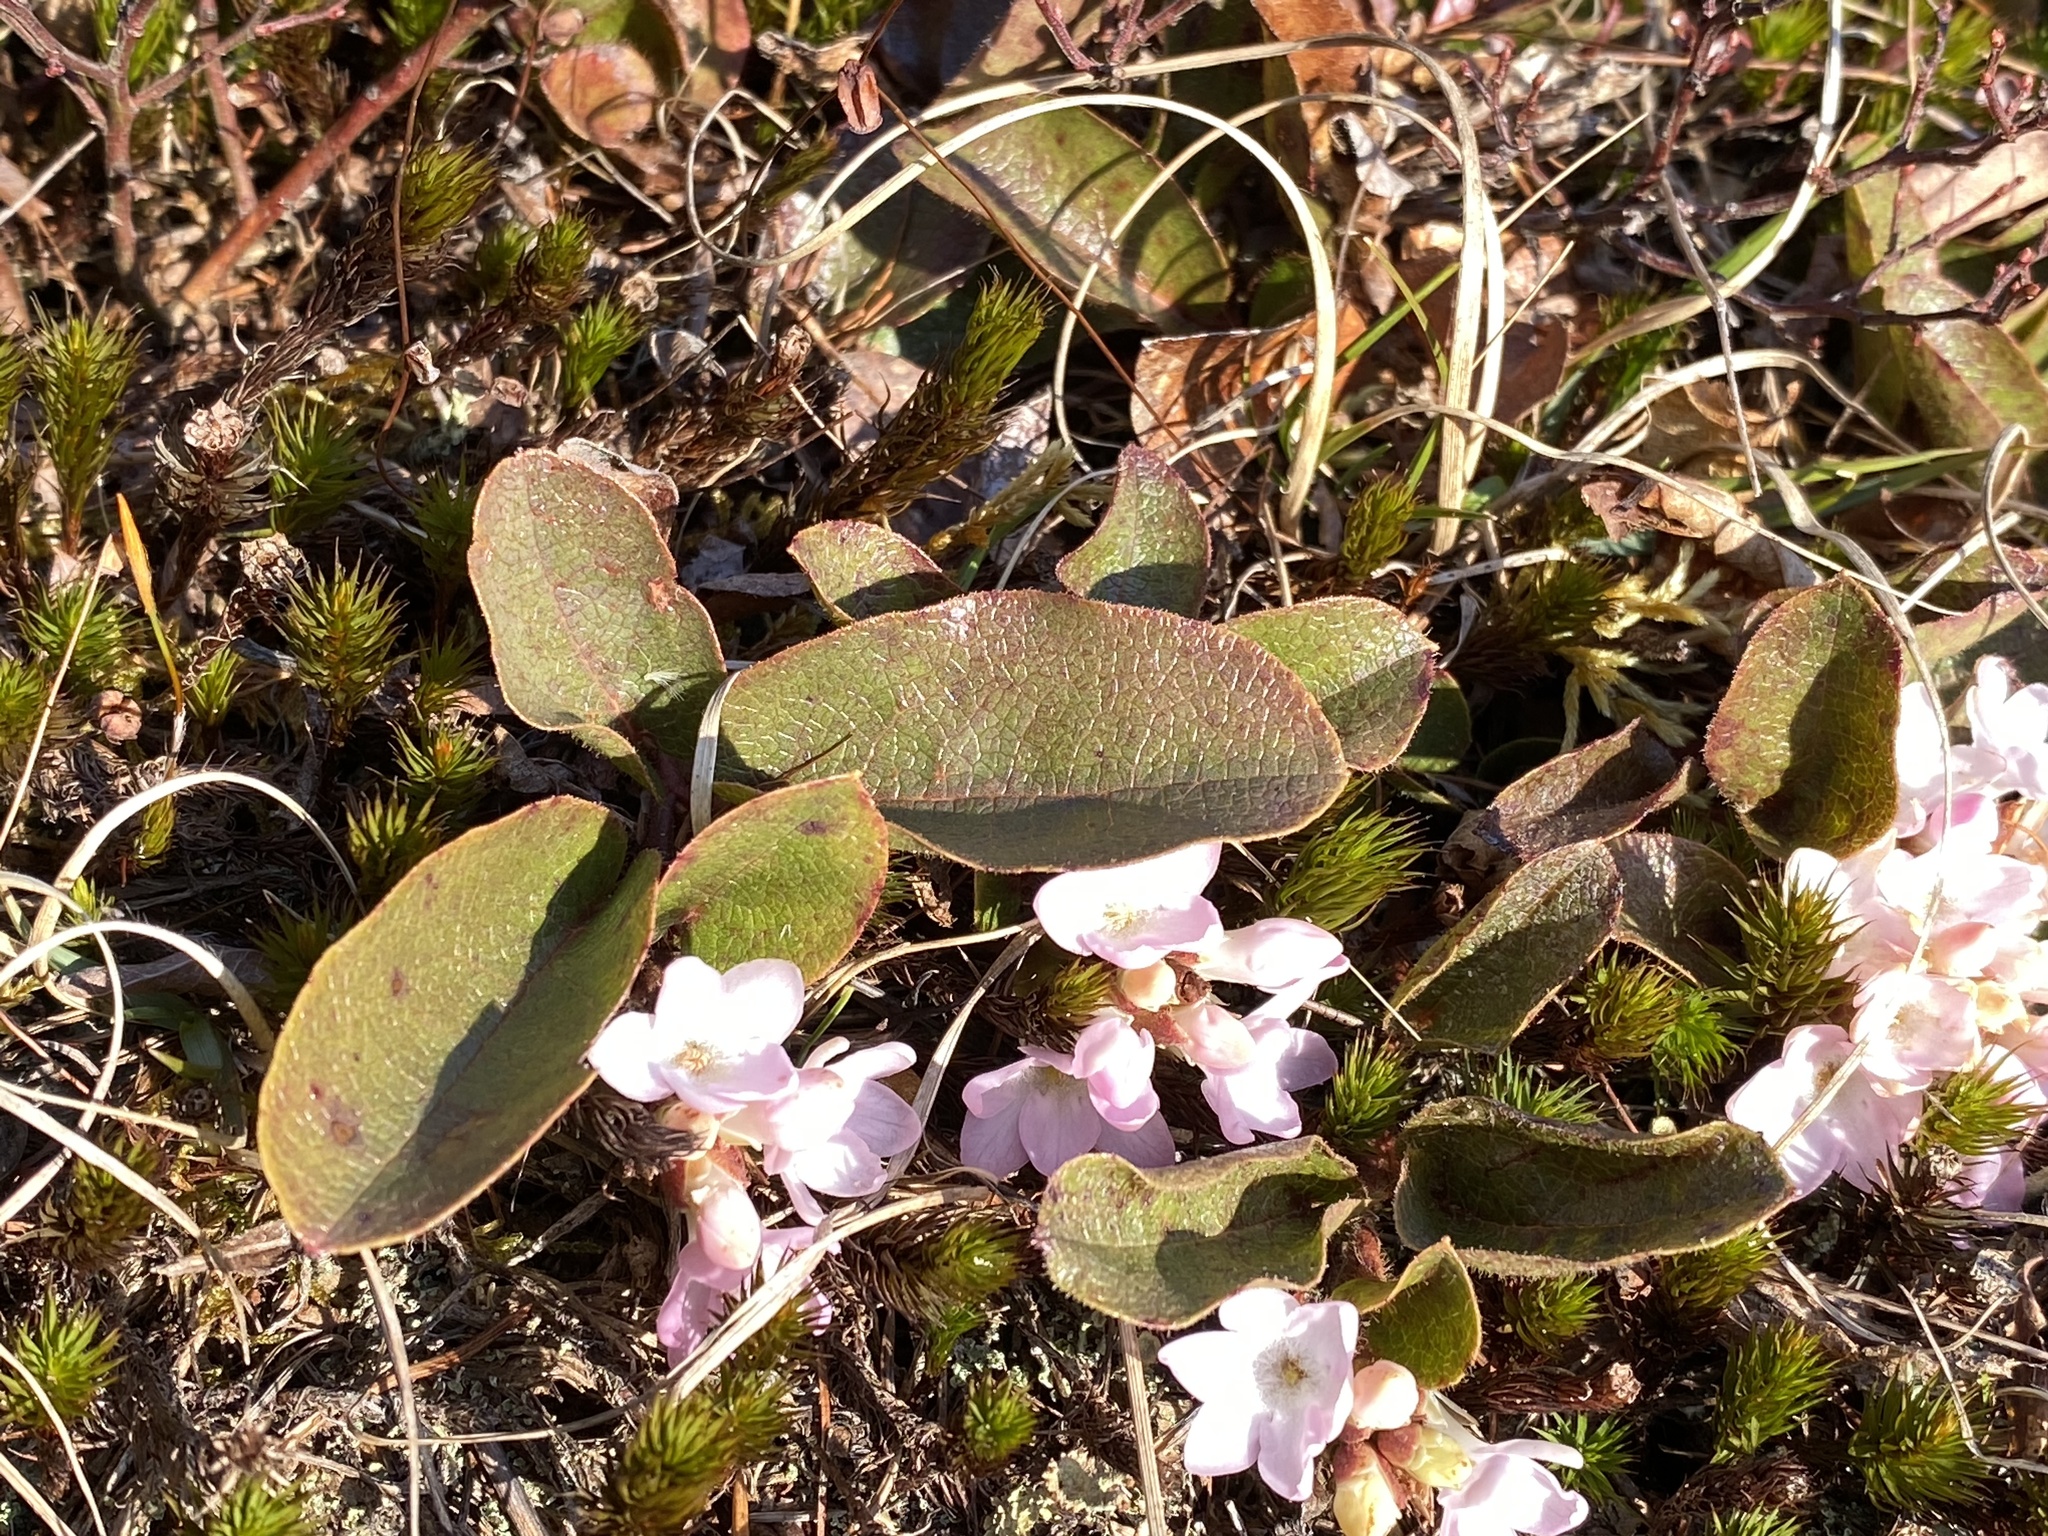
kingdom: Plantae
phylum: Tracheophyta
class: Magnoliopsida
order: Ericales
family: Ericaceae
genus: Epigaea
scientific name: Epigaea repens
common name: Gravelroot
